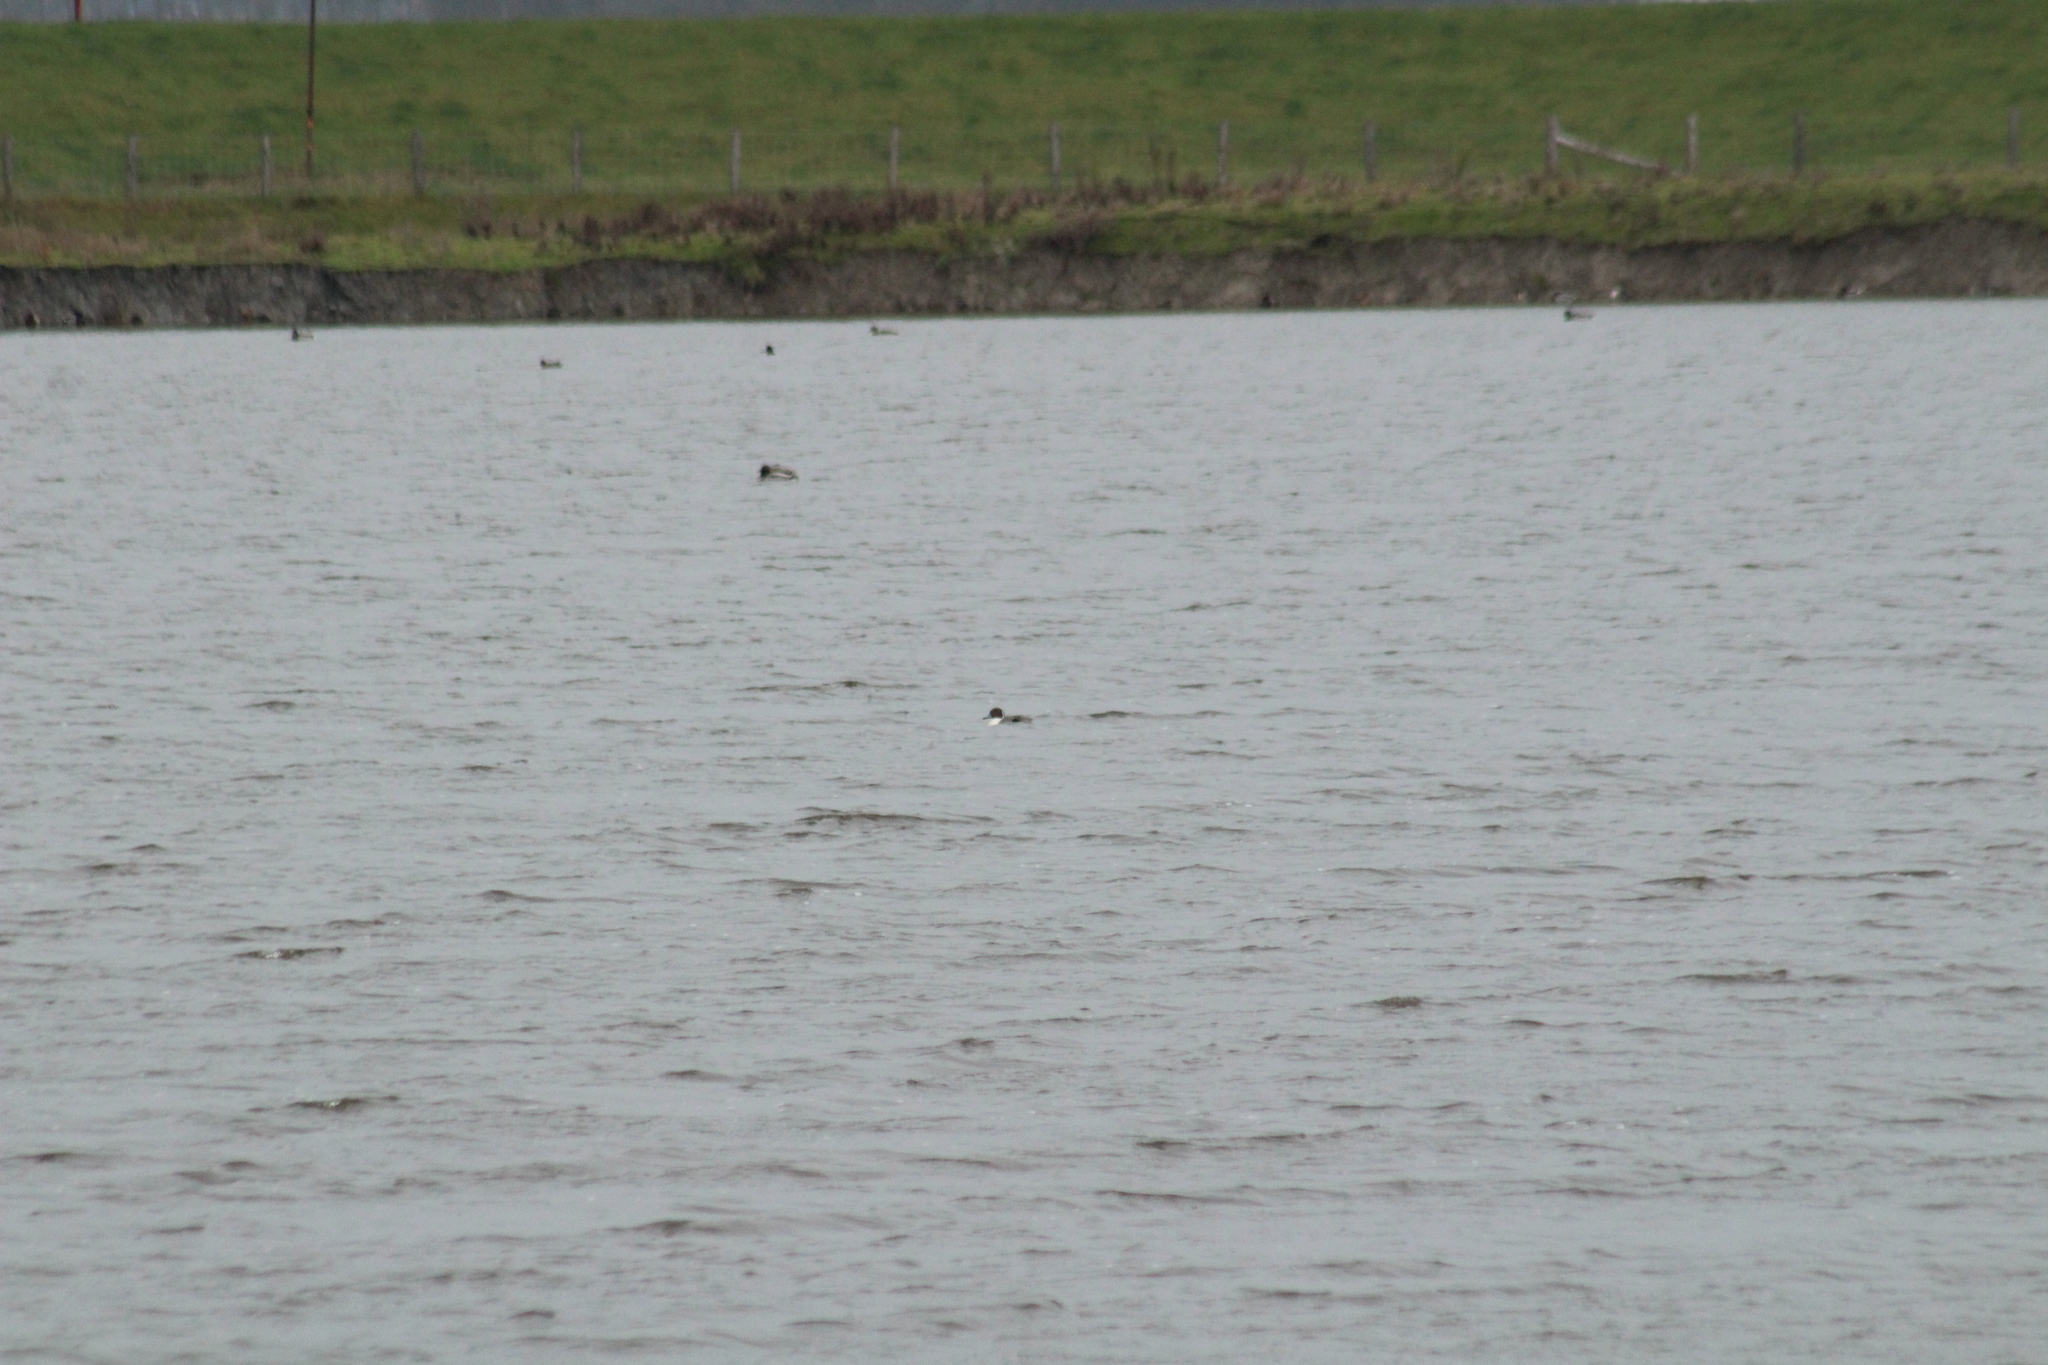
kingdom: Animalia
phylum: Chordata
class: Aves
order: Anseriformes
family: Anatidae
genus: Anas
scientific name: Anas acuta
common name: Northern pintail
